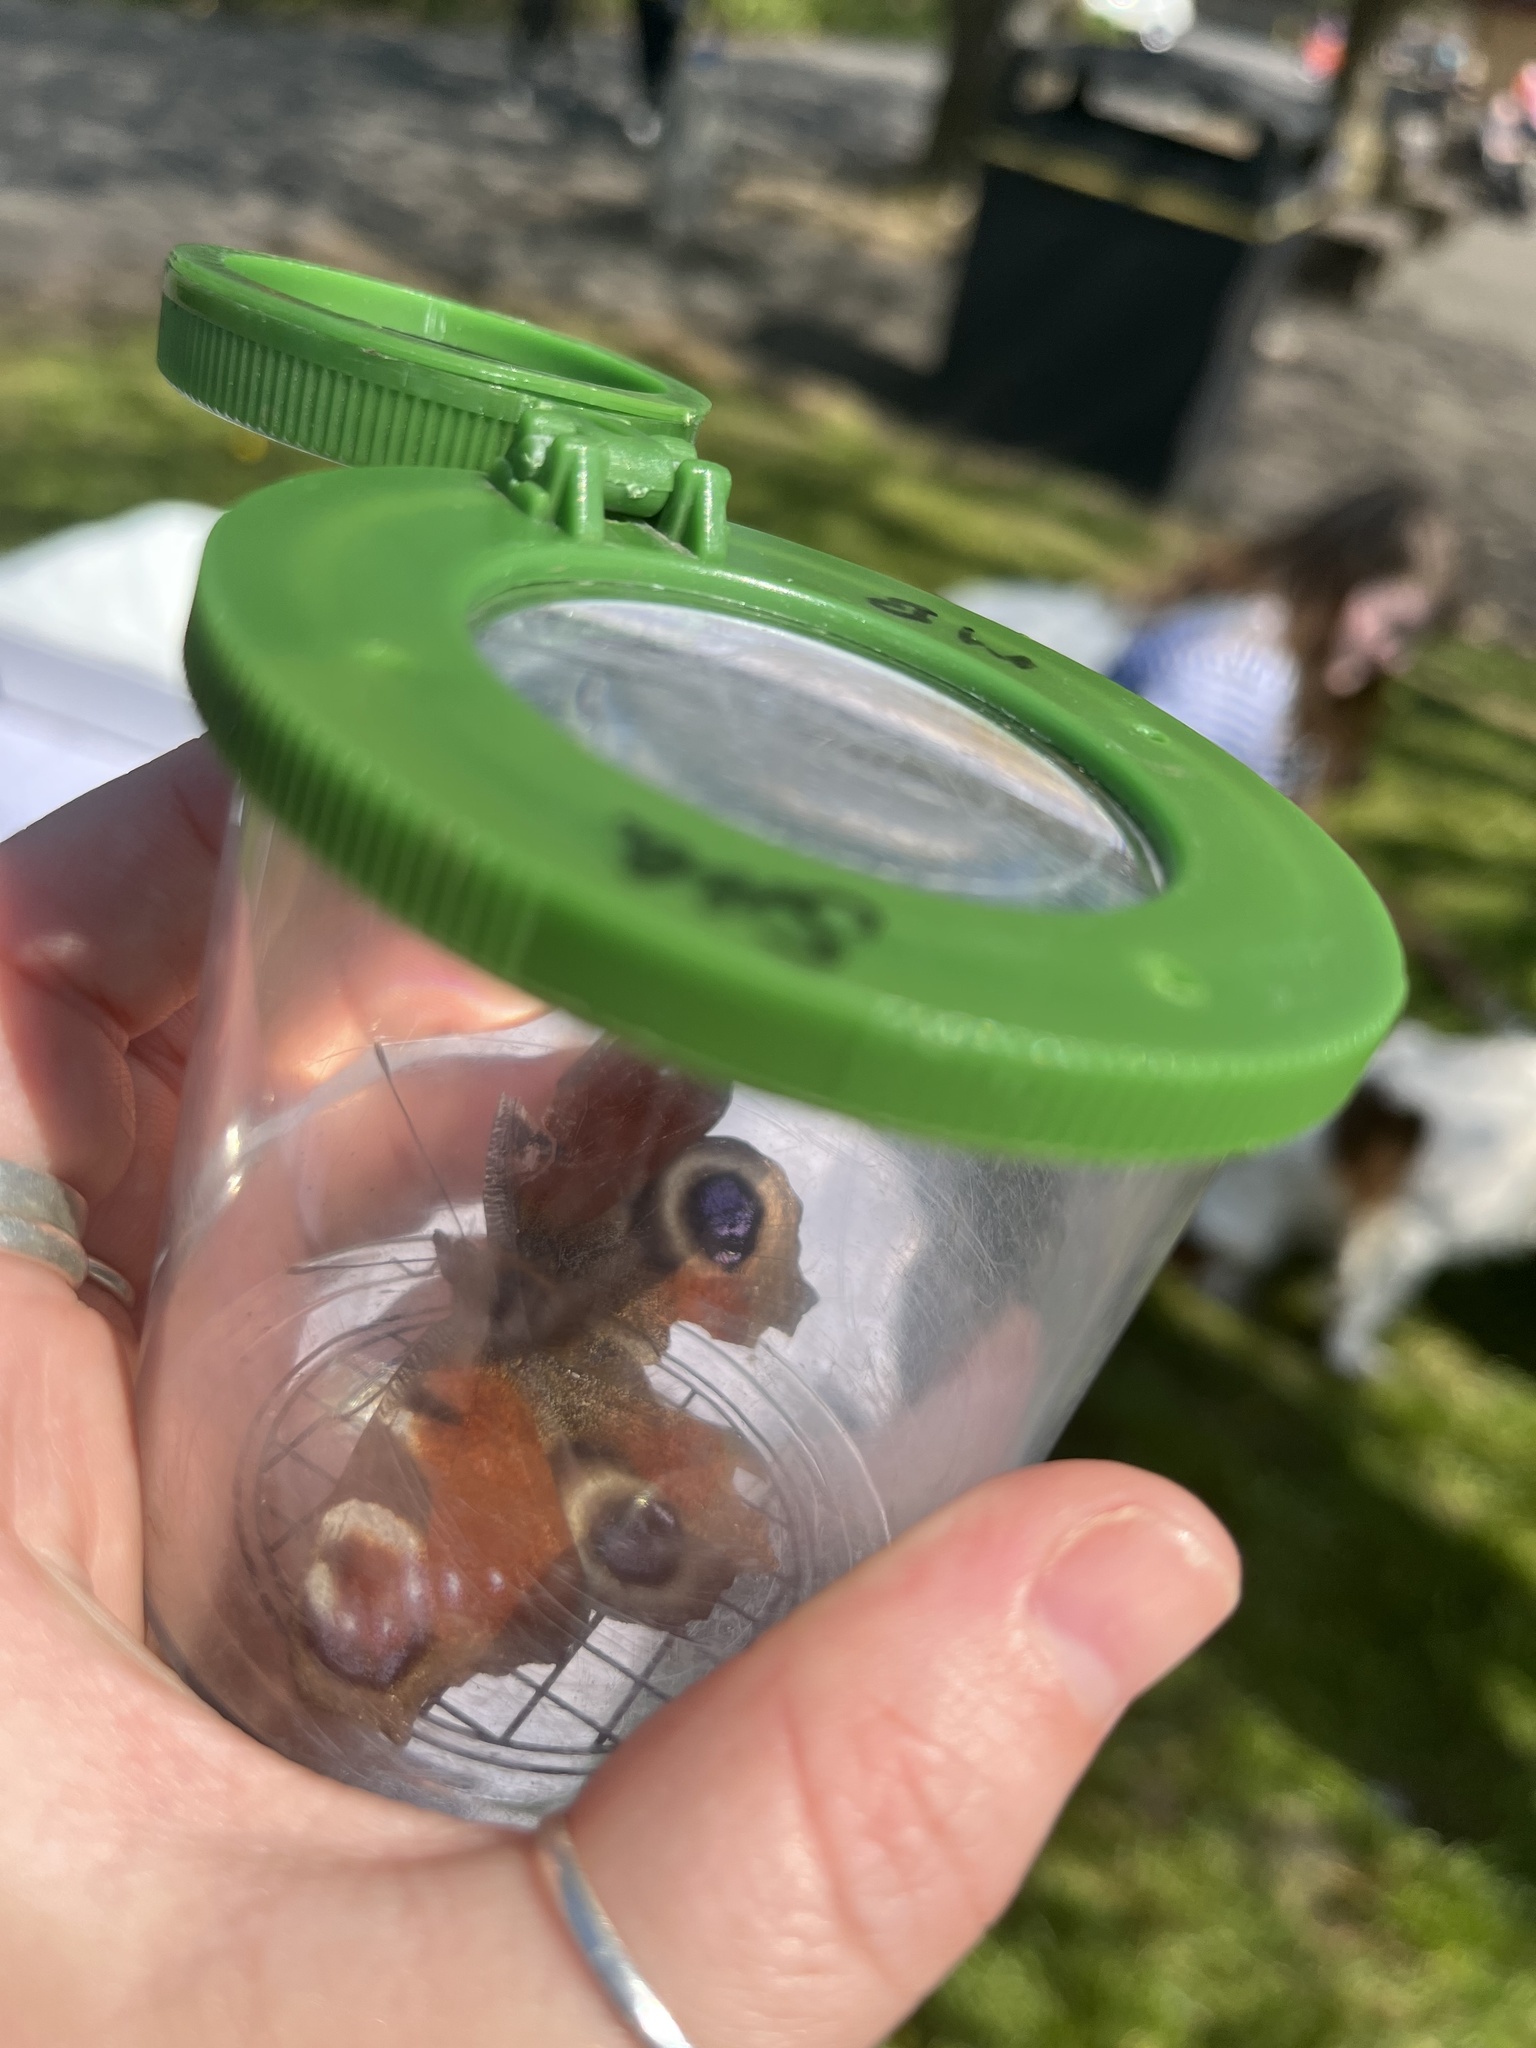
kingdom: Animalia
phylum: Arthropoda
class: Insecta
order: Lepidoptera
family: Nymphalidae
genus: Aglais
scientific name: Aglais io
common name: Peacock
